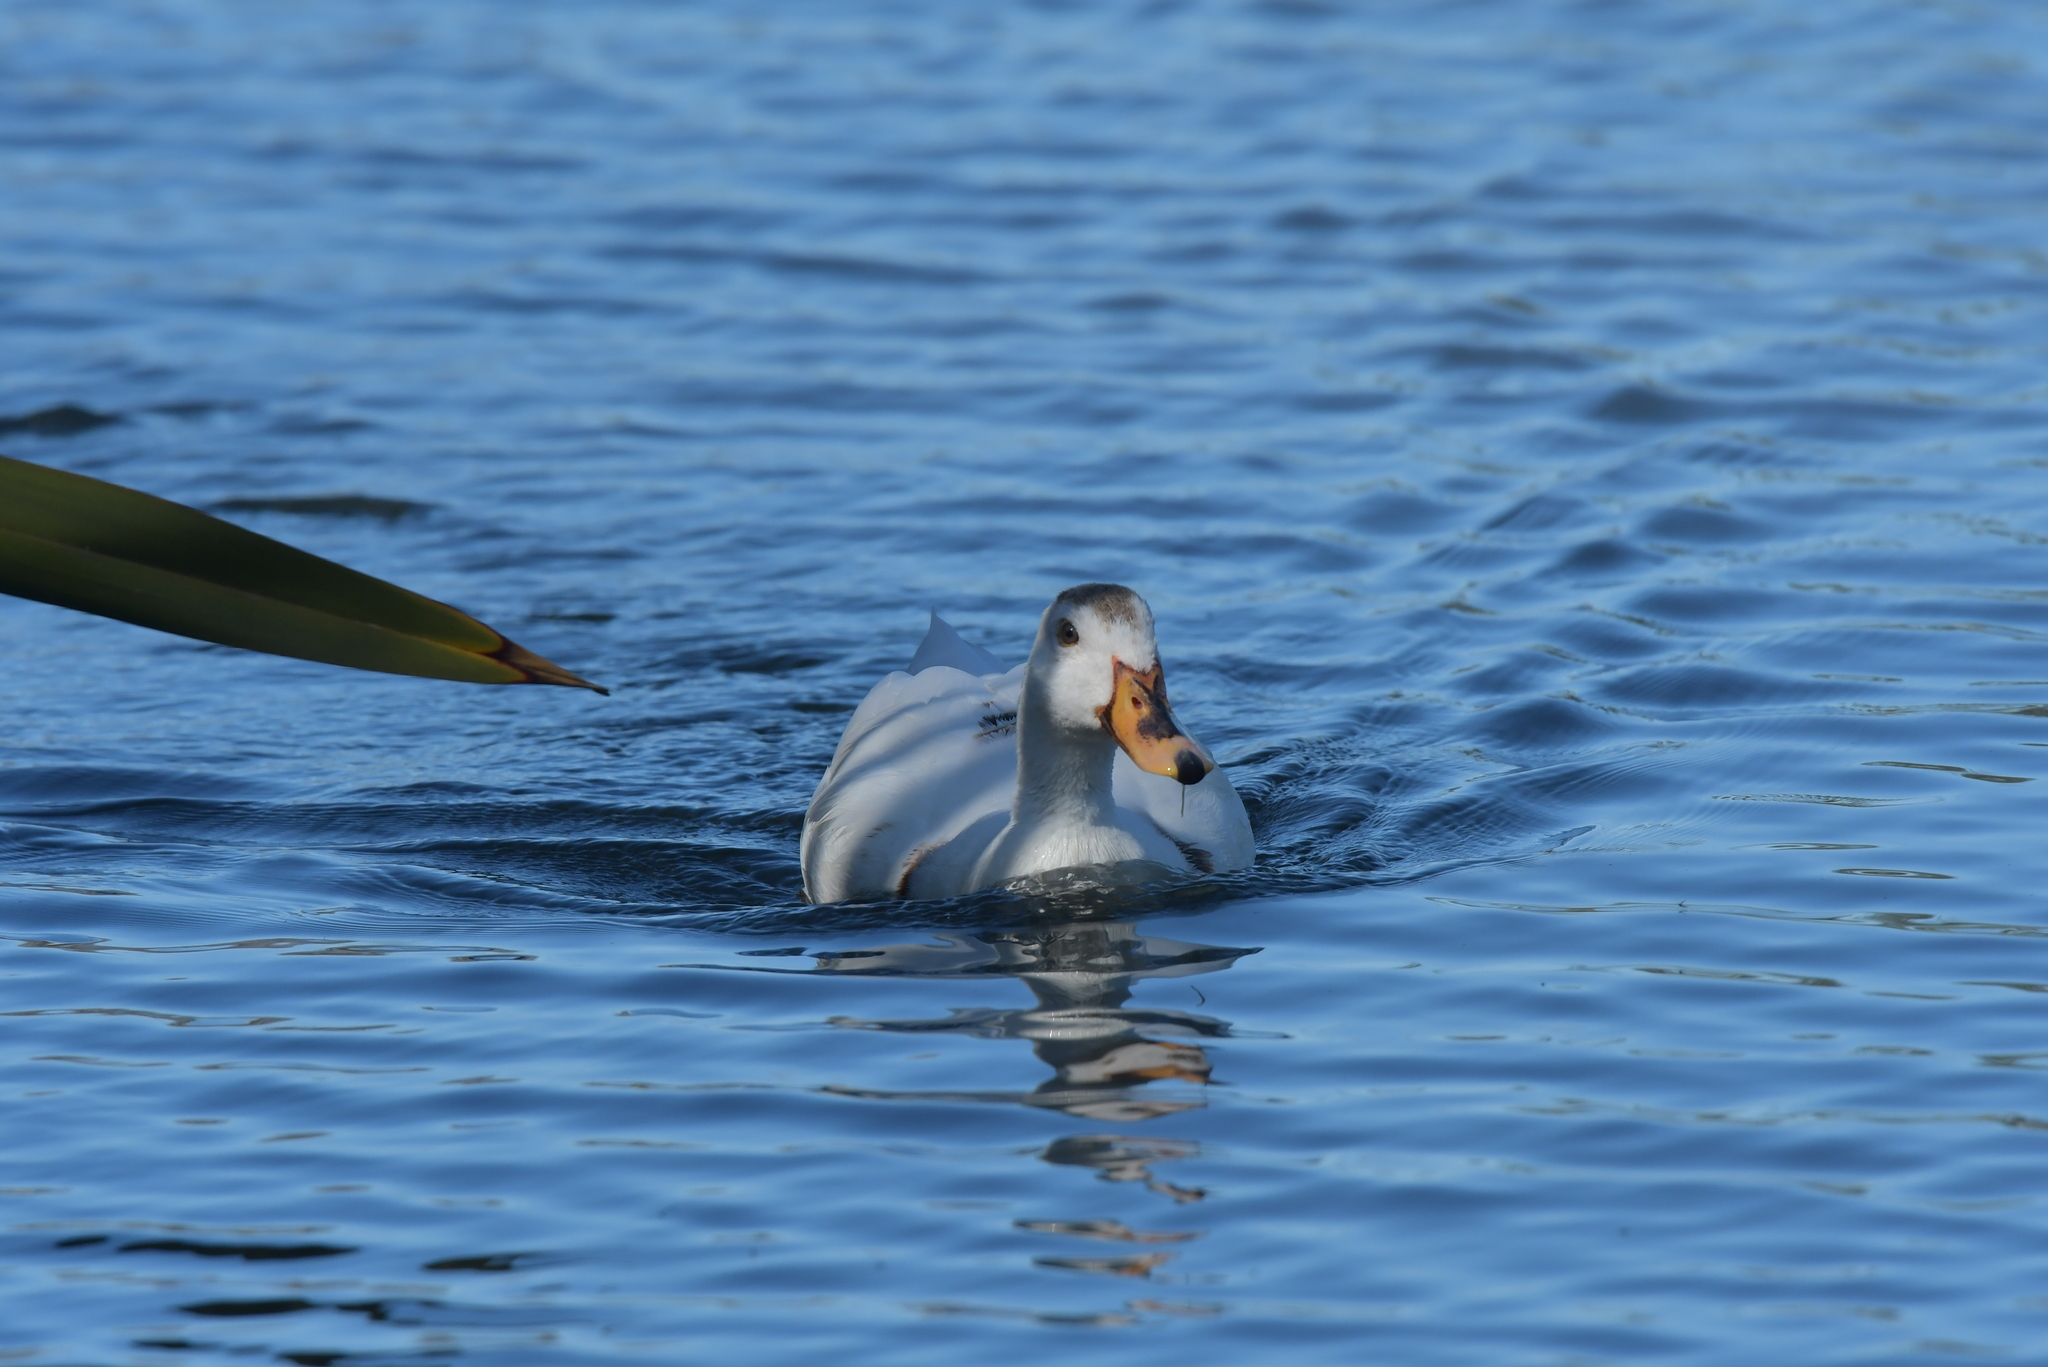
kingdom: Animalia
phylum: Chordata
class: Aves
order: Anseriformes
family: Anatidae
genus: Anas
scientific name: Anas platyrhynchos
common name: Mallard
